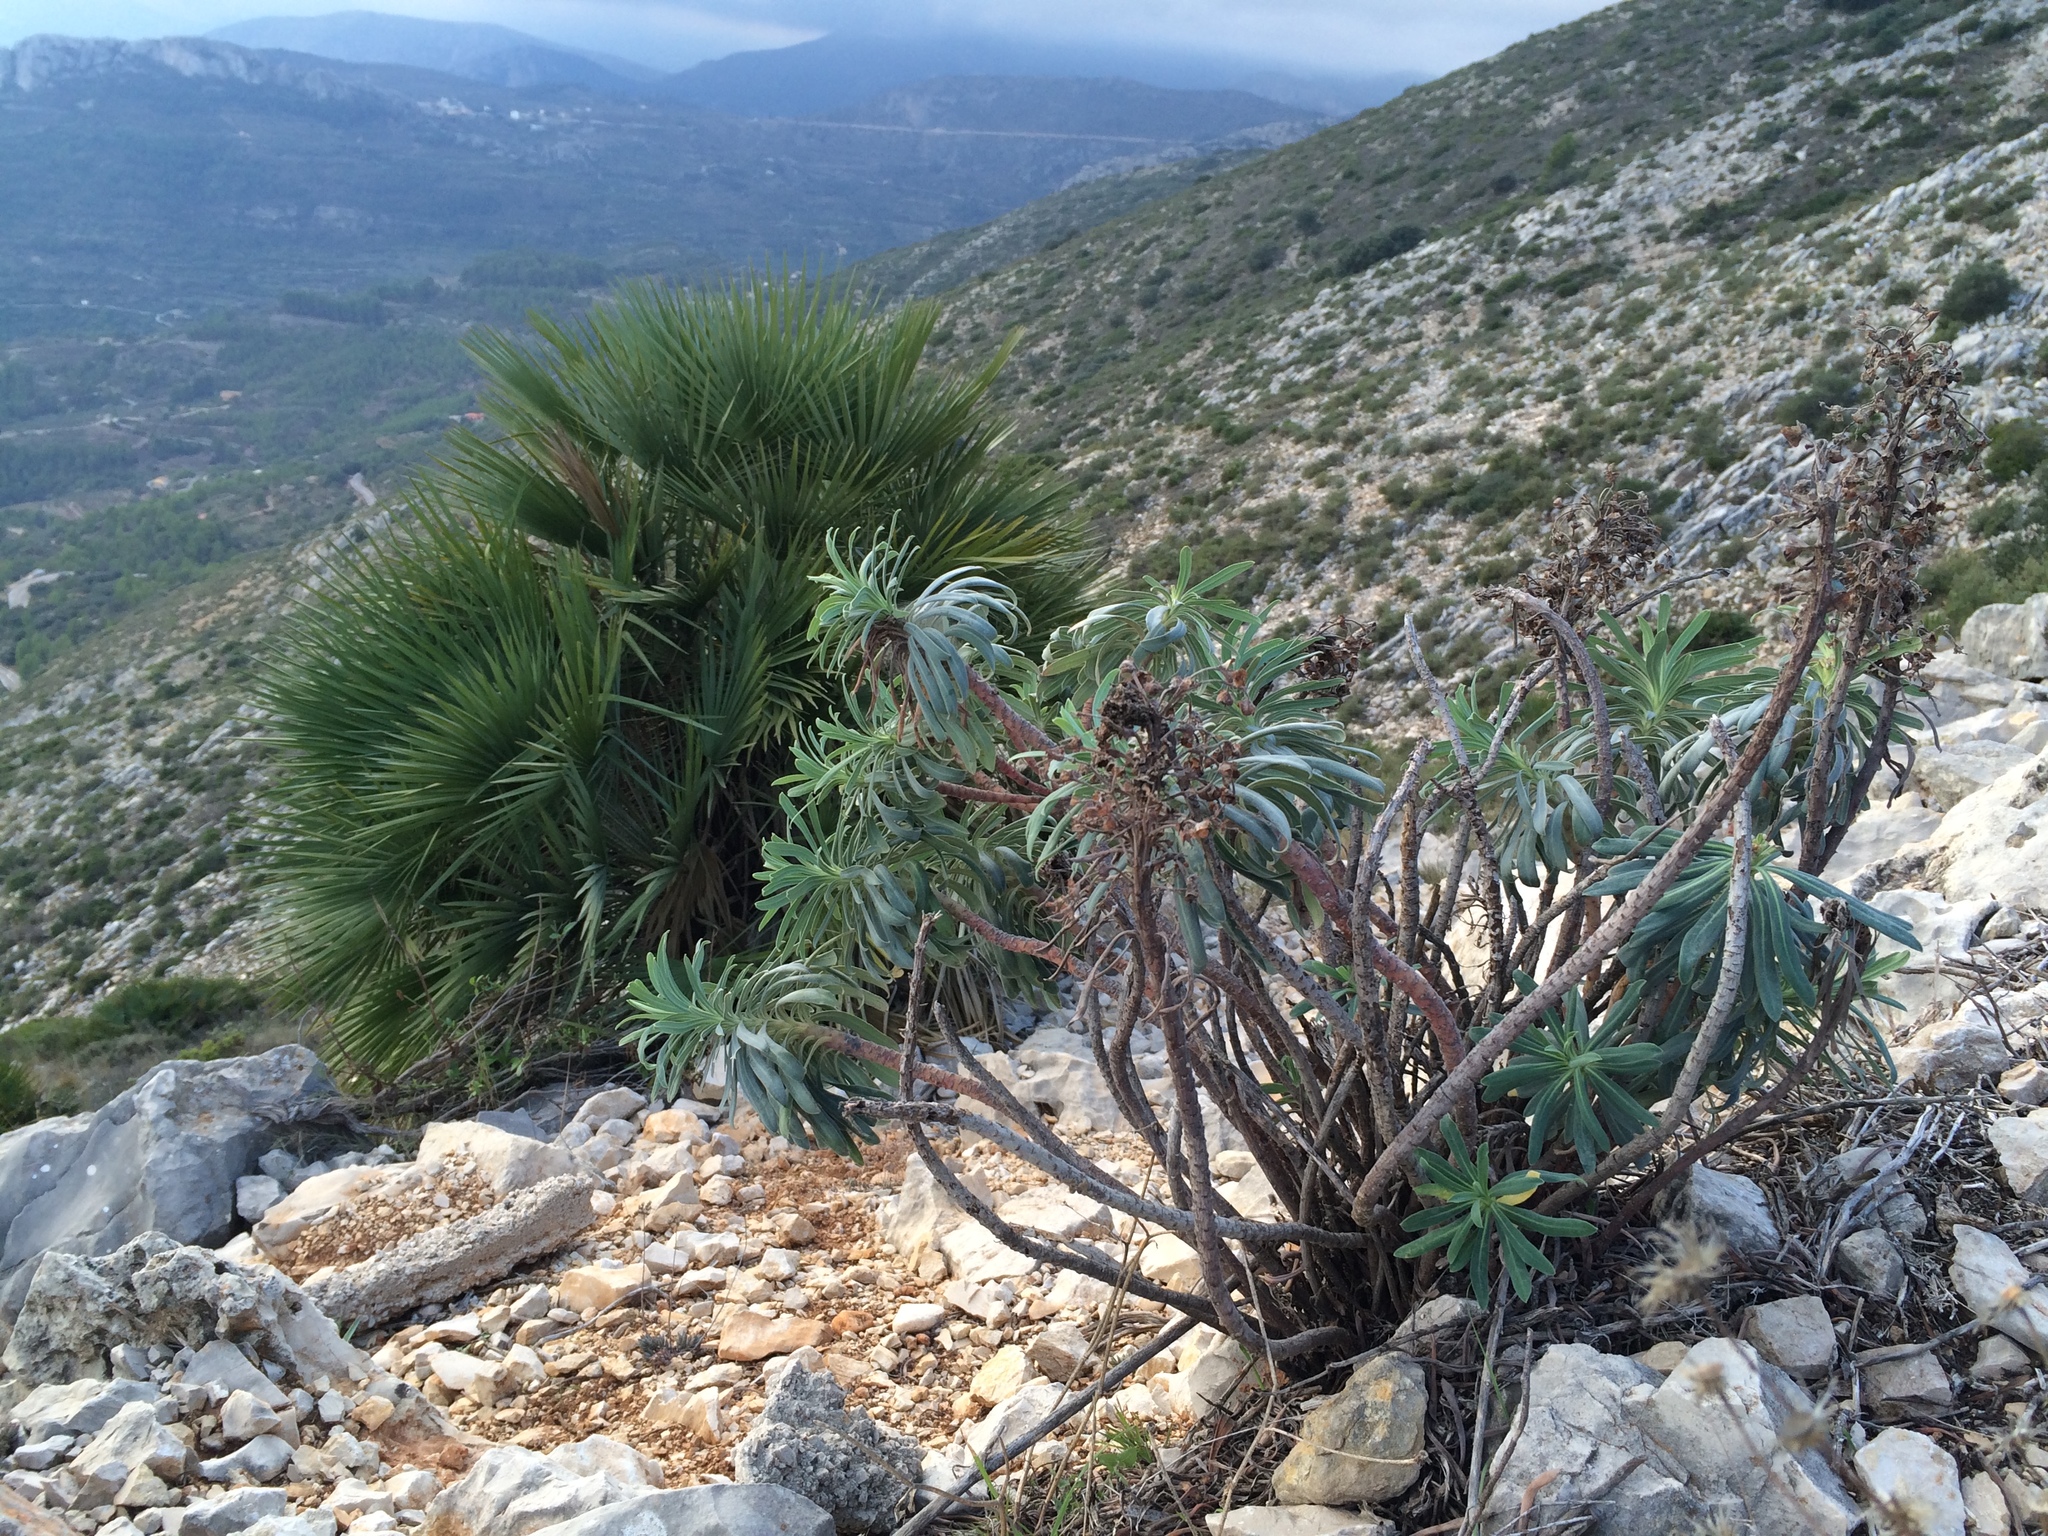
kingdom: Plantae
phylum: Tracheophyta
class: Magnoliopsida
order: Malpighiales
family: Euphorbiaceae
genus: Euphorbia
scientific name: Euphorbia characias
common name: Mediterranean spurge
